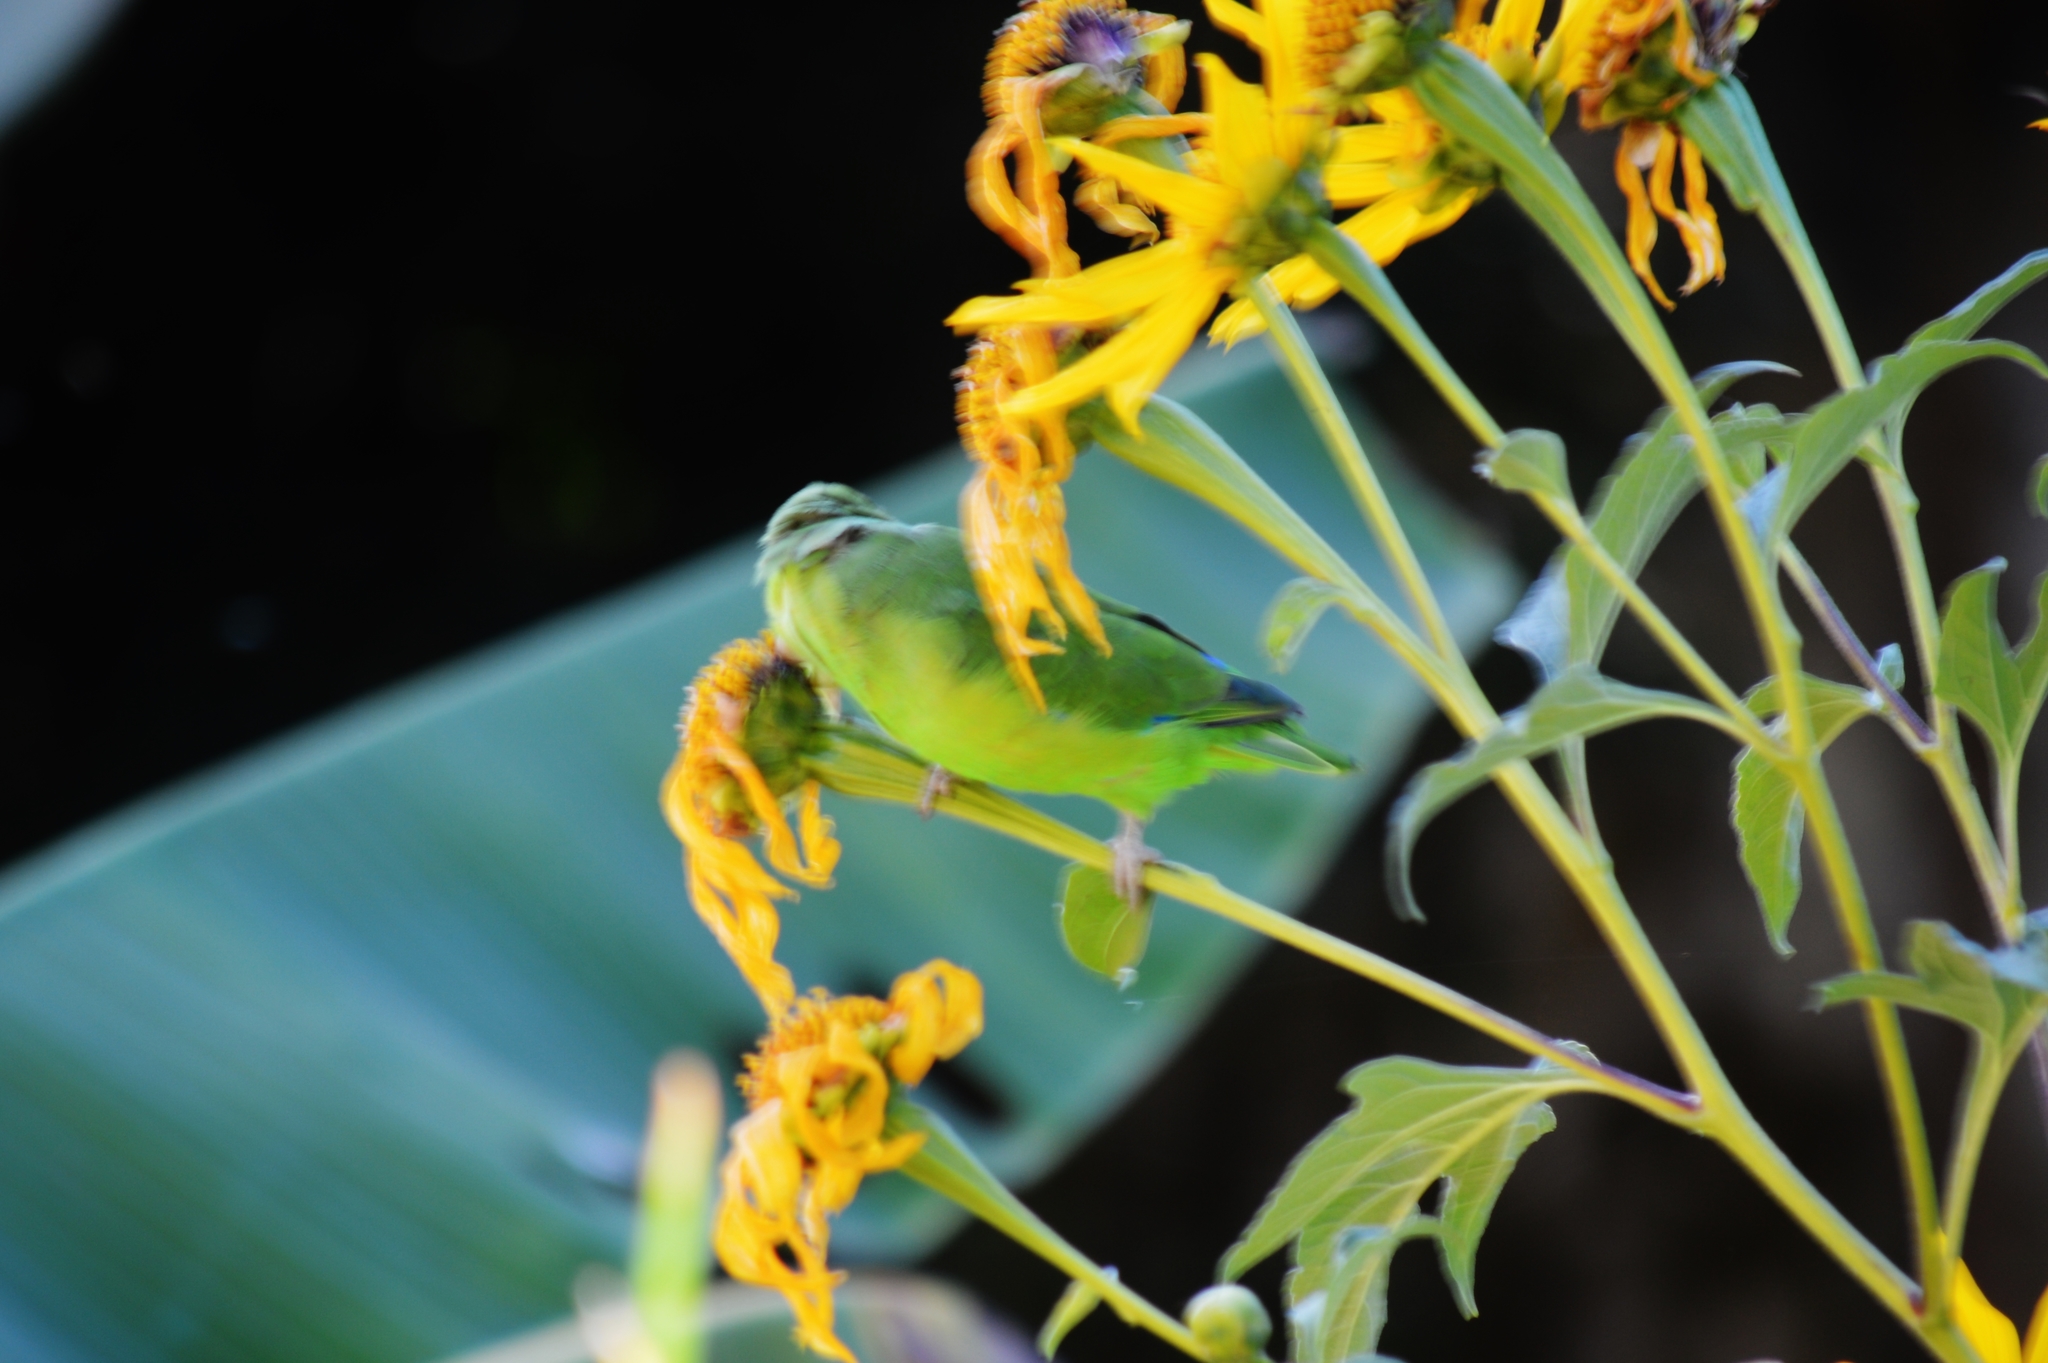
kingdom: Animalia
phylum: Chordata
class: Aves
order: Psittaciformes
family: Psittacidae
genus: Forpus
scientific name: Forpus xanthopterygius
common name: Blue-winged parrotlet
